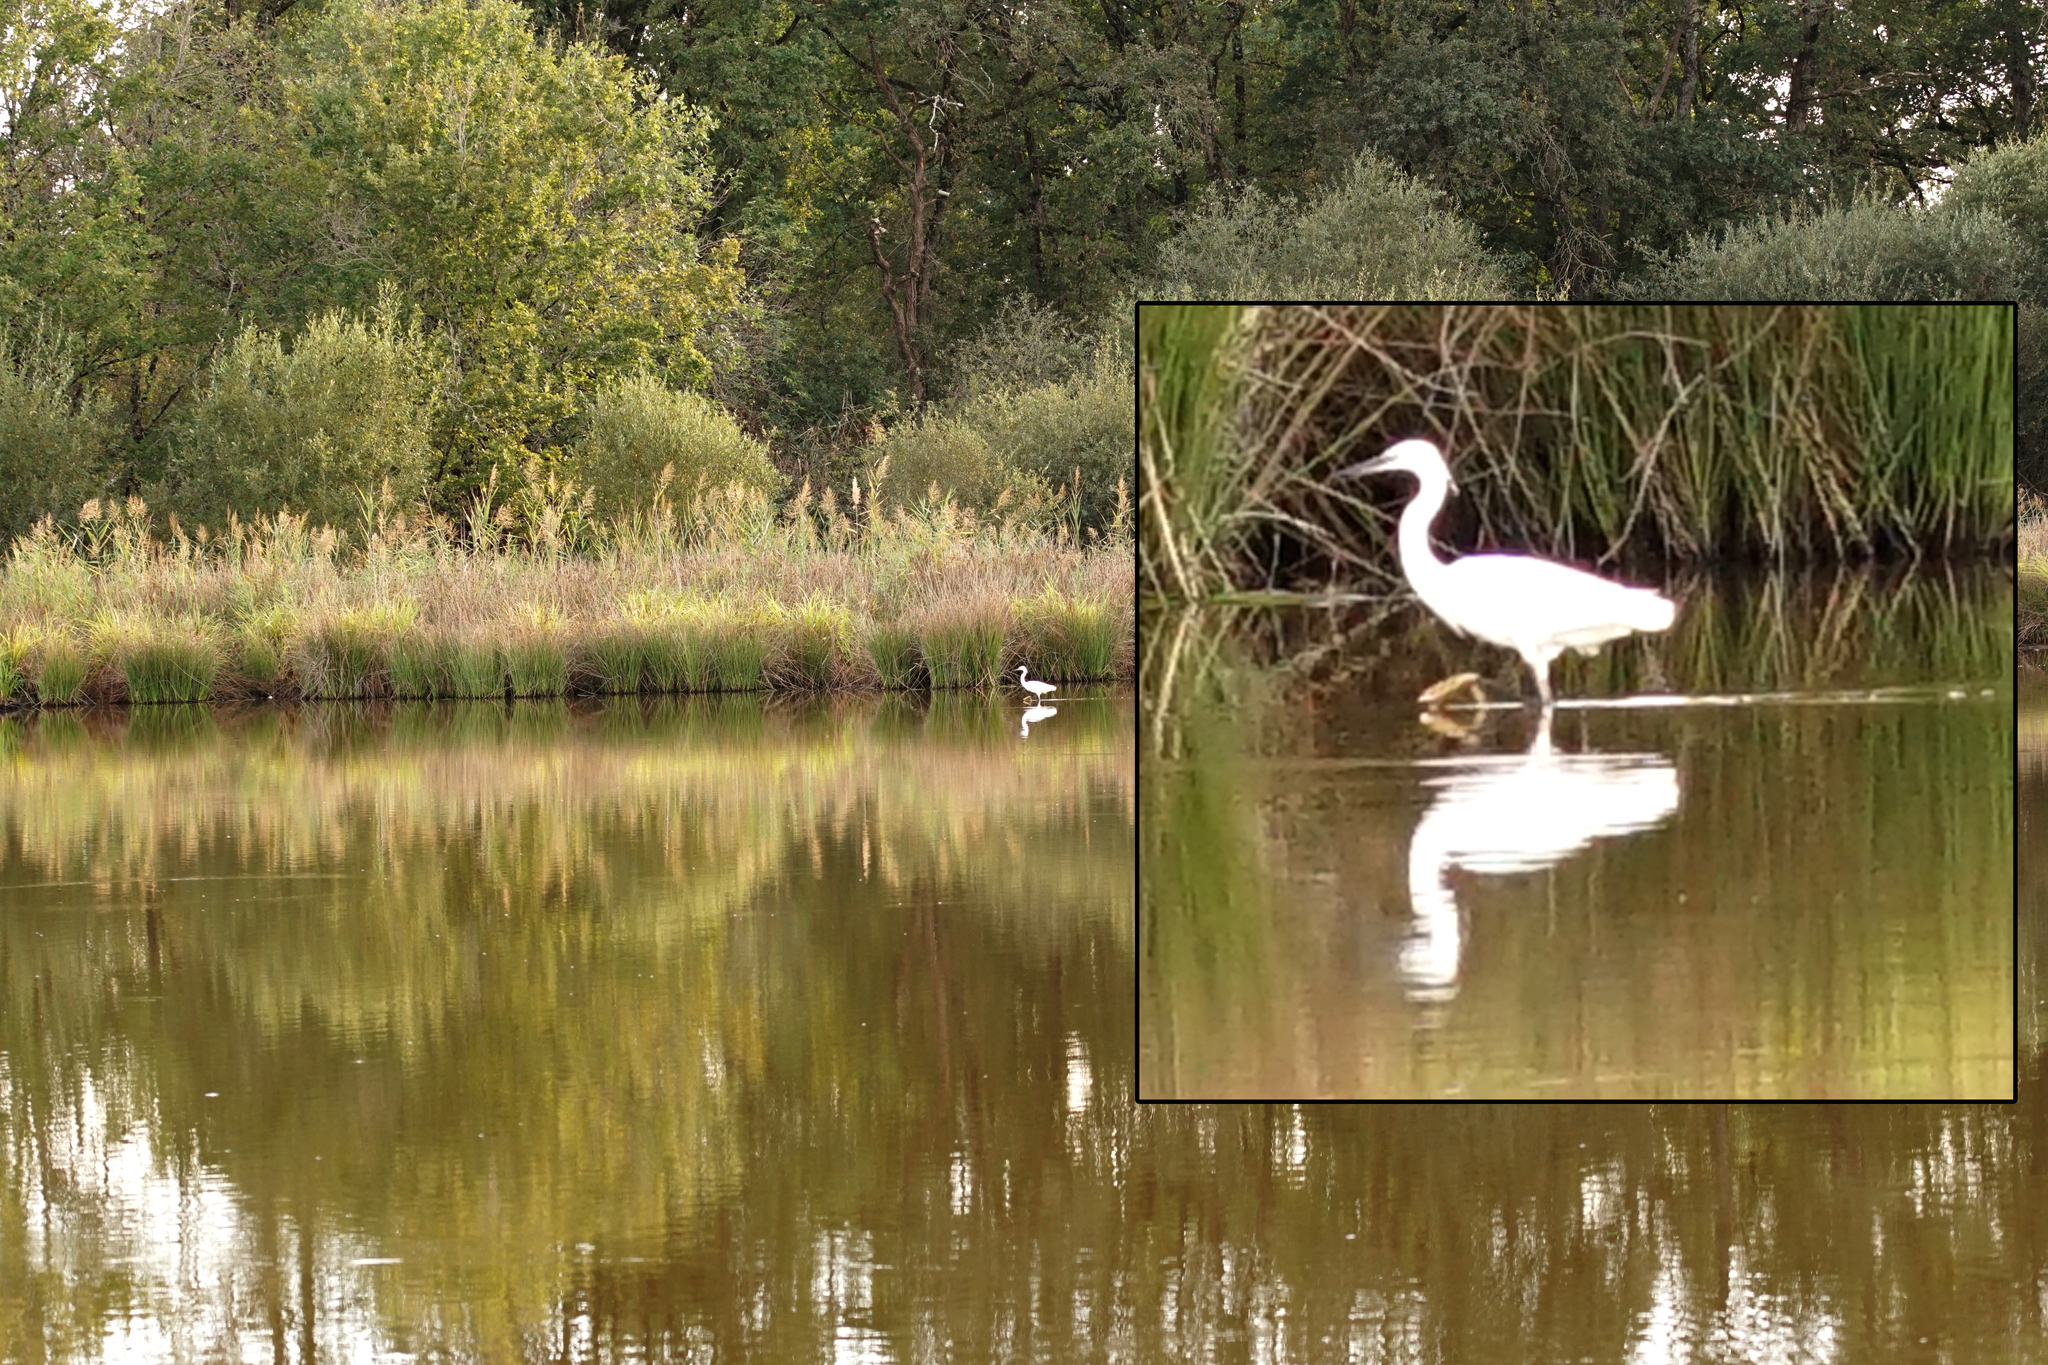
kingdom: Animalia
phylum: Chordata
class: Aves
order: Pelecaniformes
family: Ardeidae
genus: Egretta
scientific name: Egretta garzetta
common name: Little egret
